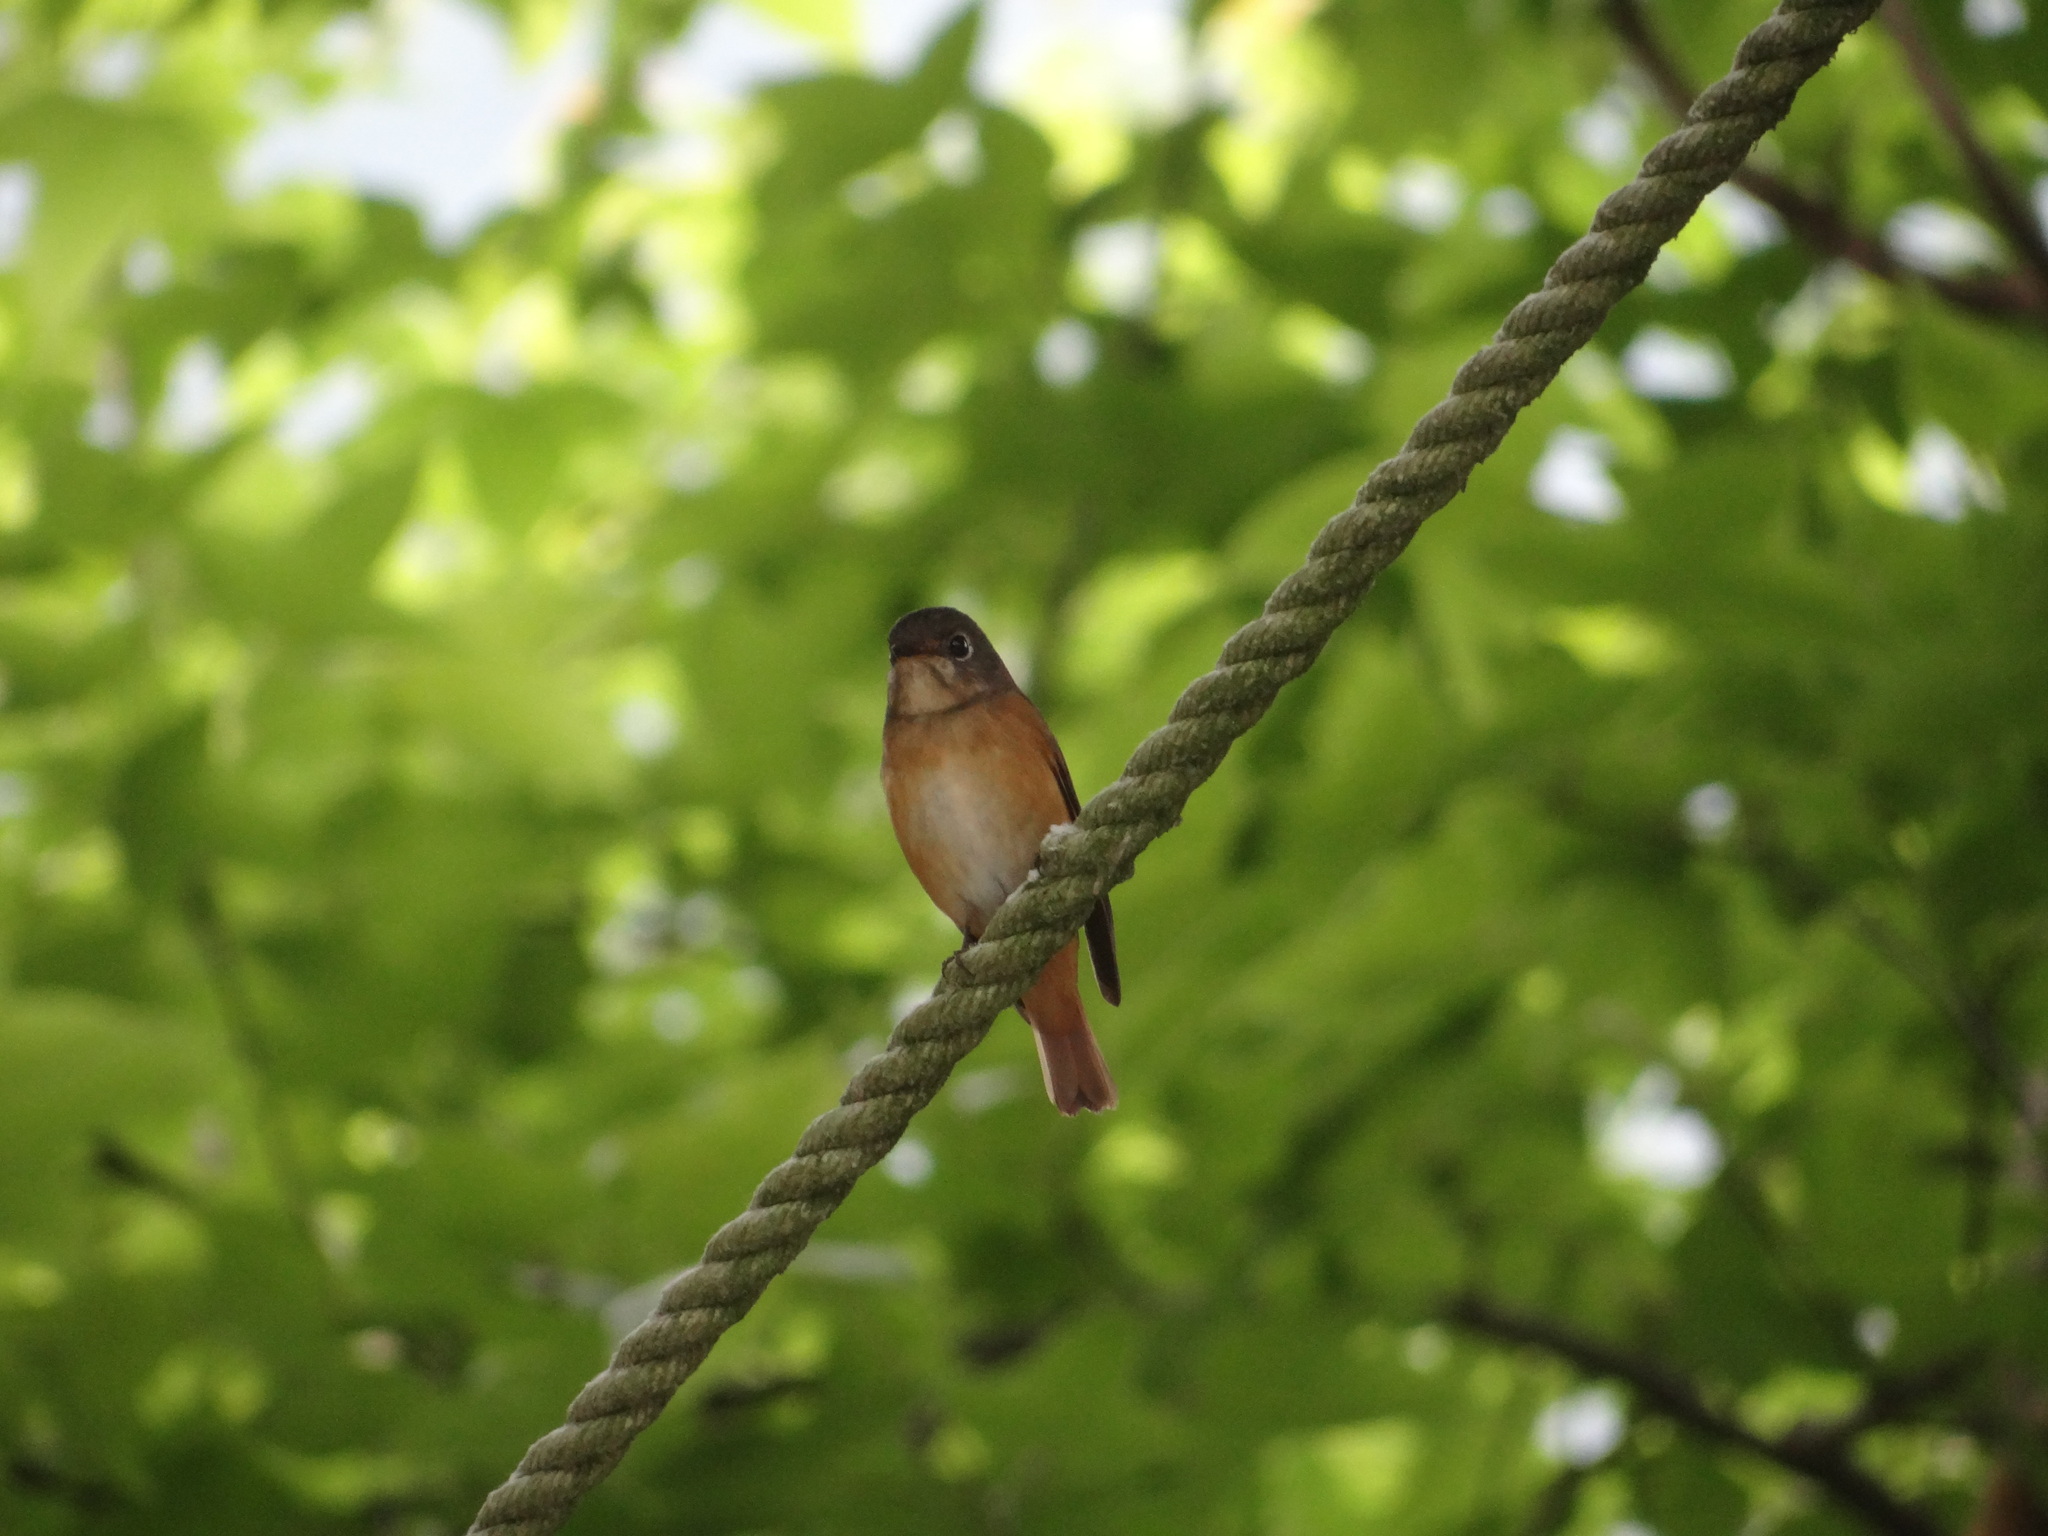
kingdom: Animalia
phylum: Chordata
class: Aves
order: Passeriformes
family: Muscicapidae
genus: Muscicapa
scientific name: Muscicapa ferruginea
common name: Ferruginous flycatcher
